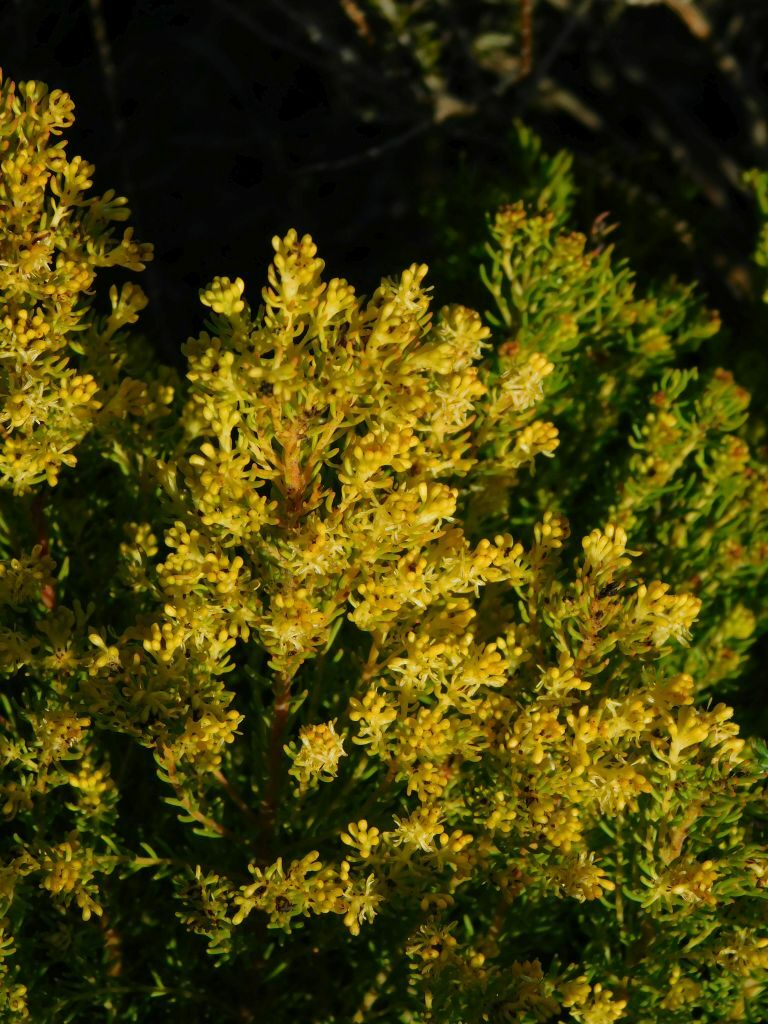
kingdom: Plantae
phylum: Tracheophyta
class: Magnoliopsida
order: Proteales
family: Proteaceae
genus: Leucadendron
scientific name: Leucadendron teretifolium
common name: Needle-leaf conebush
